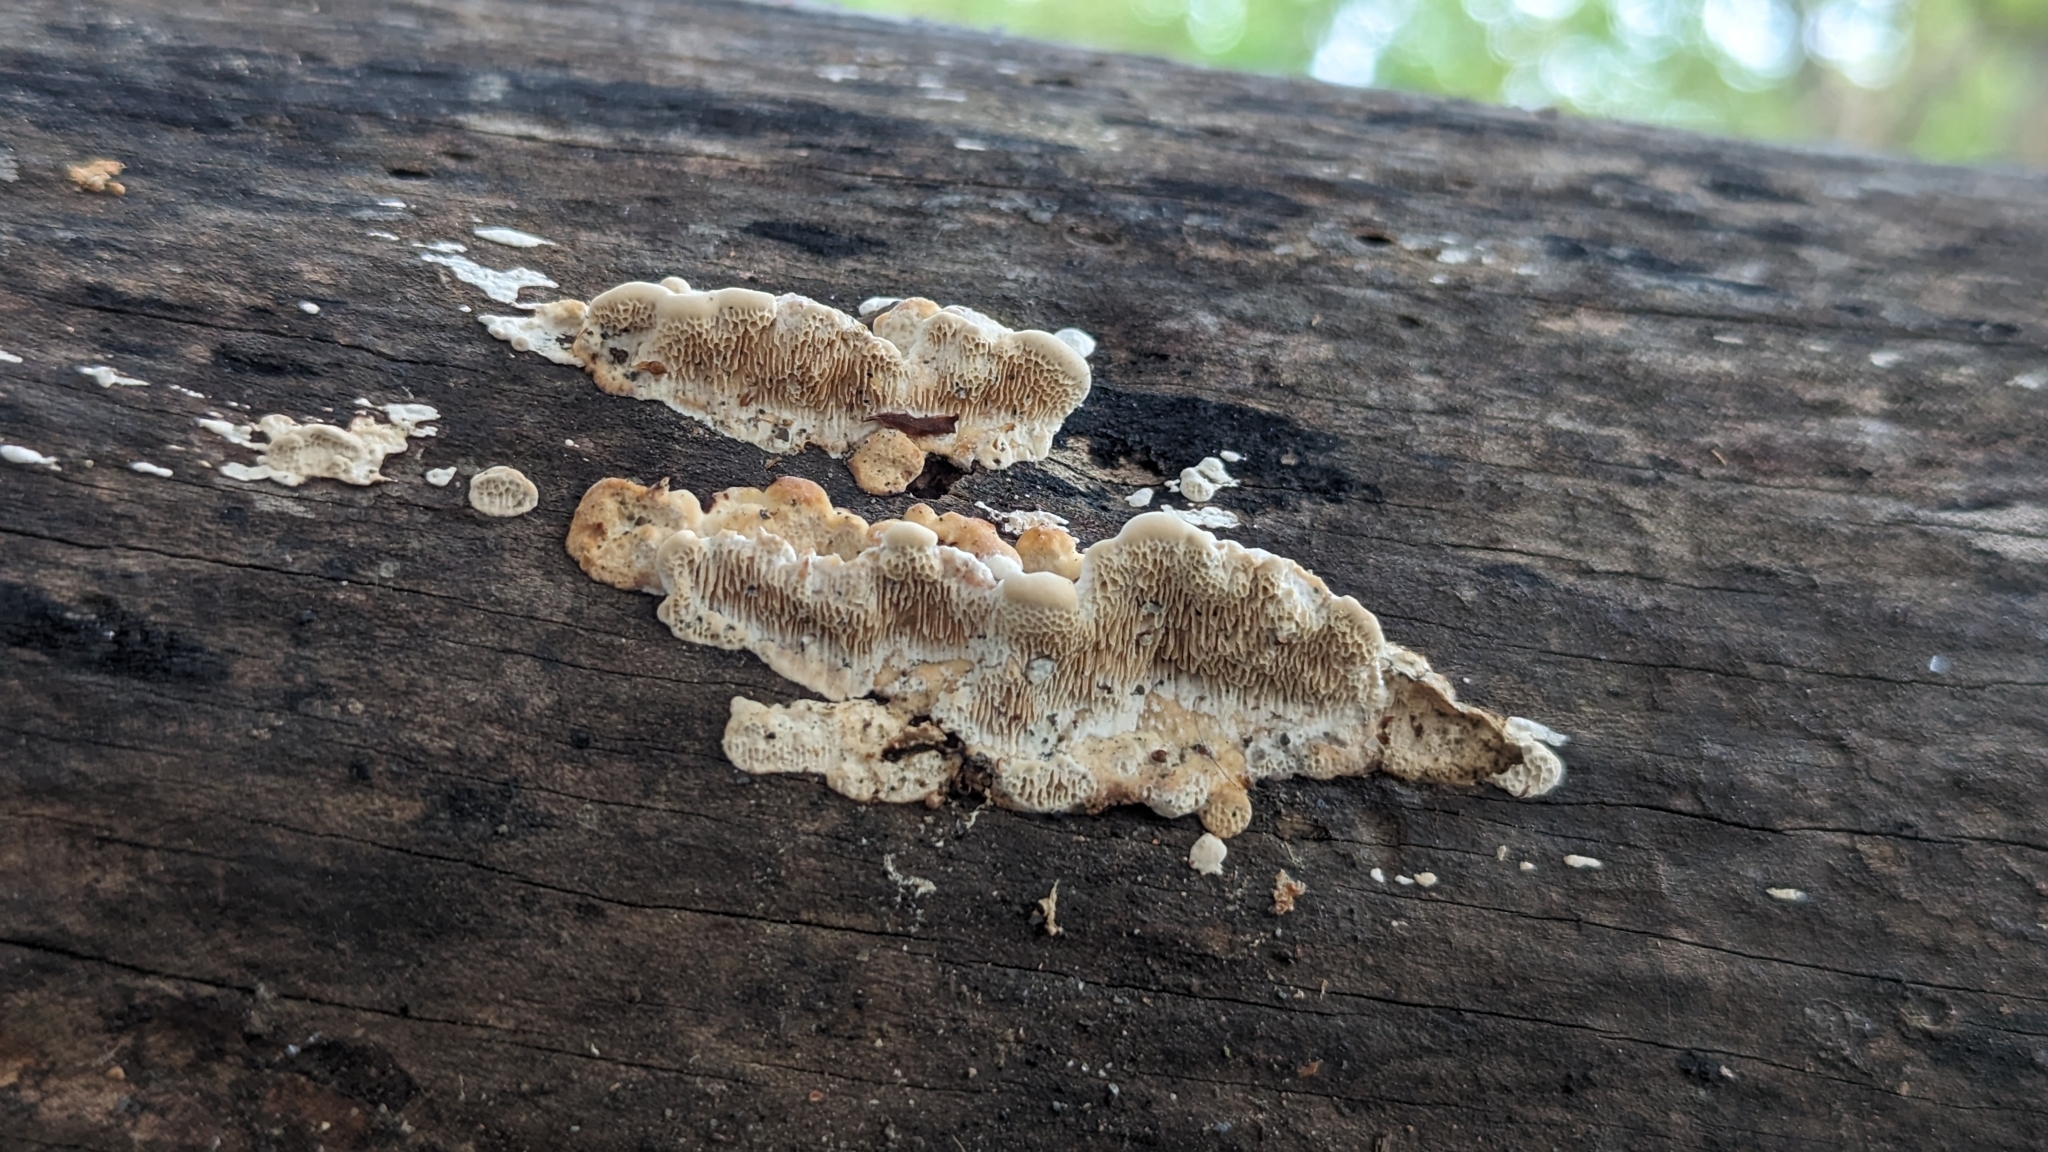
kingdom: Fungi
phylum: Basidiomycota
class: Agaricomycetes
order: Polyporales
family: Polyporaceae
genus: Earliella
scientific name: Earliella scabrosa
